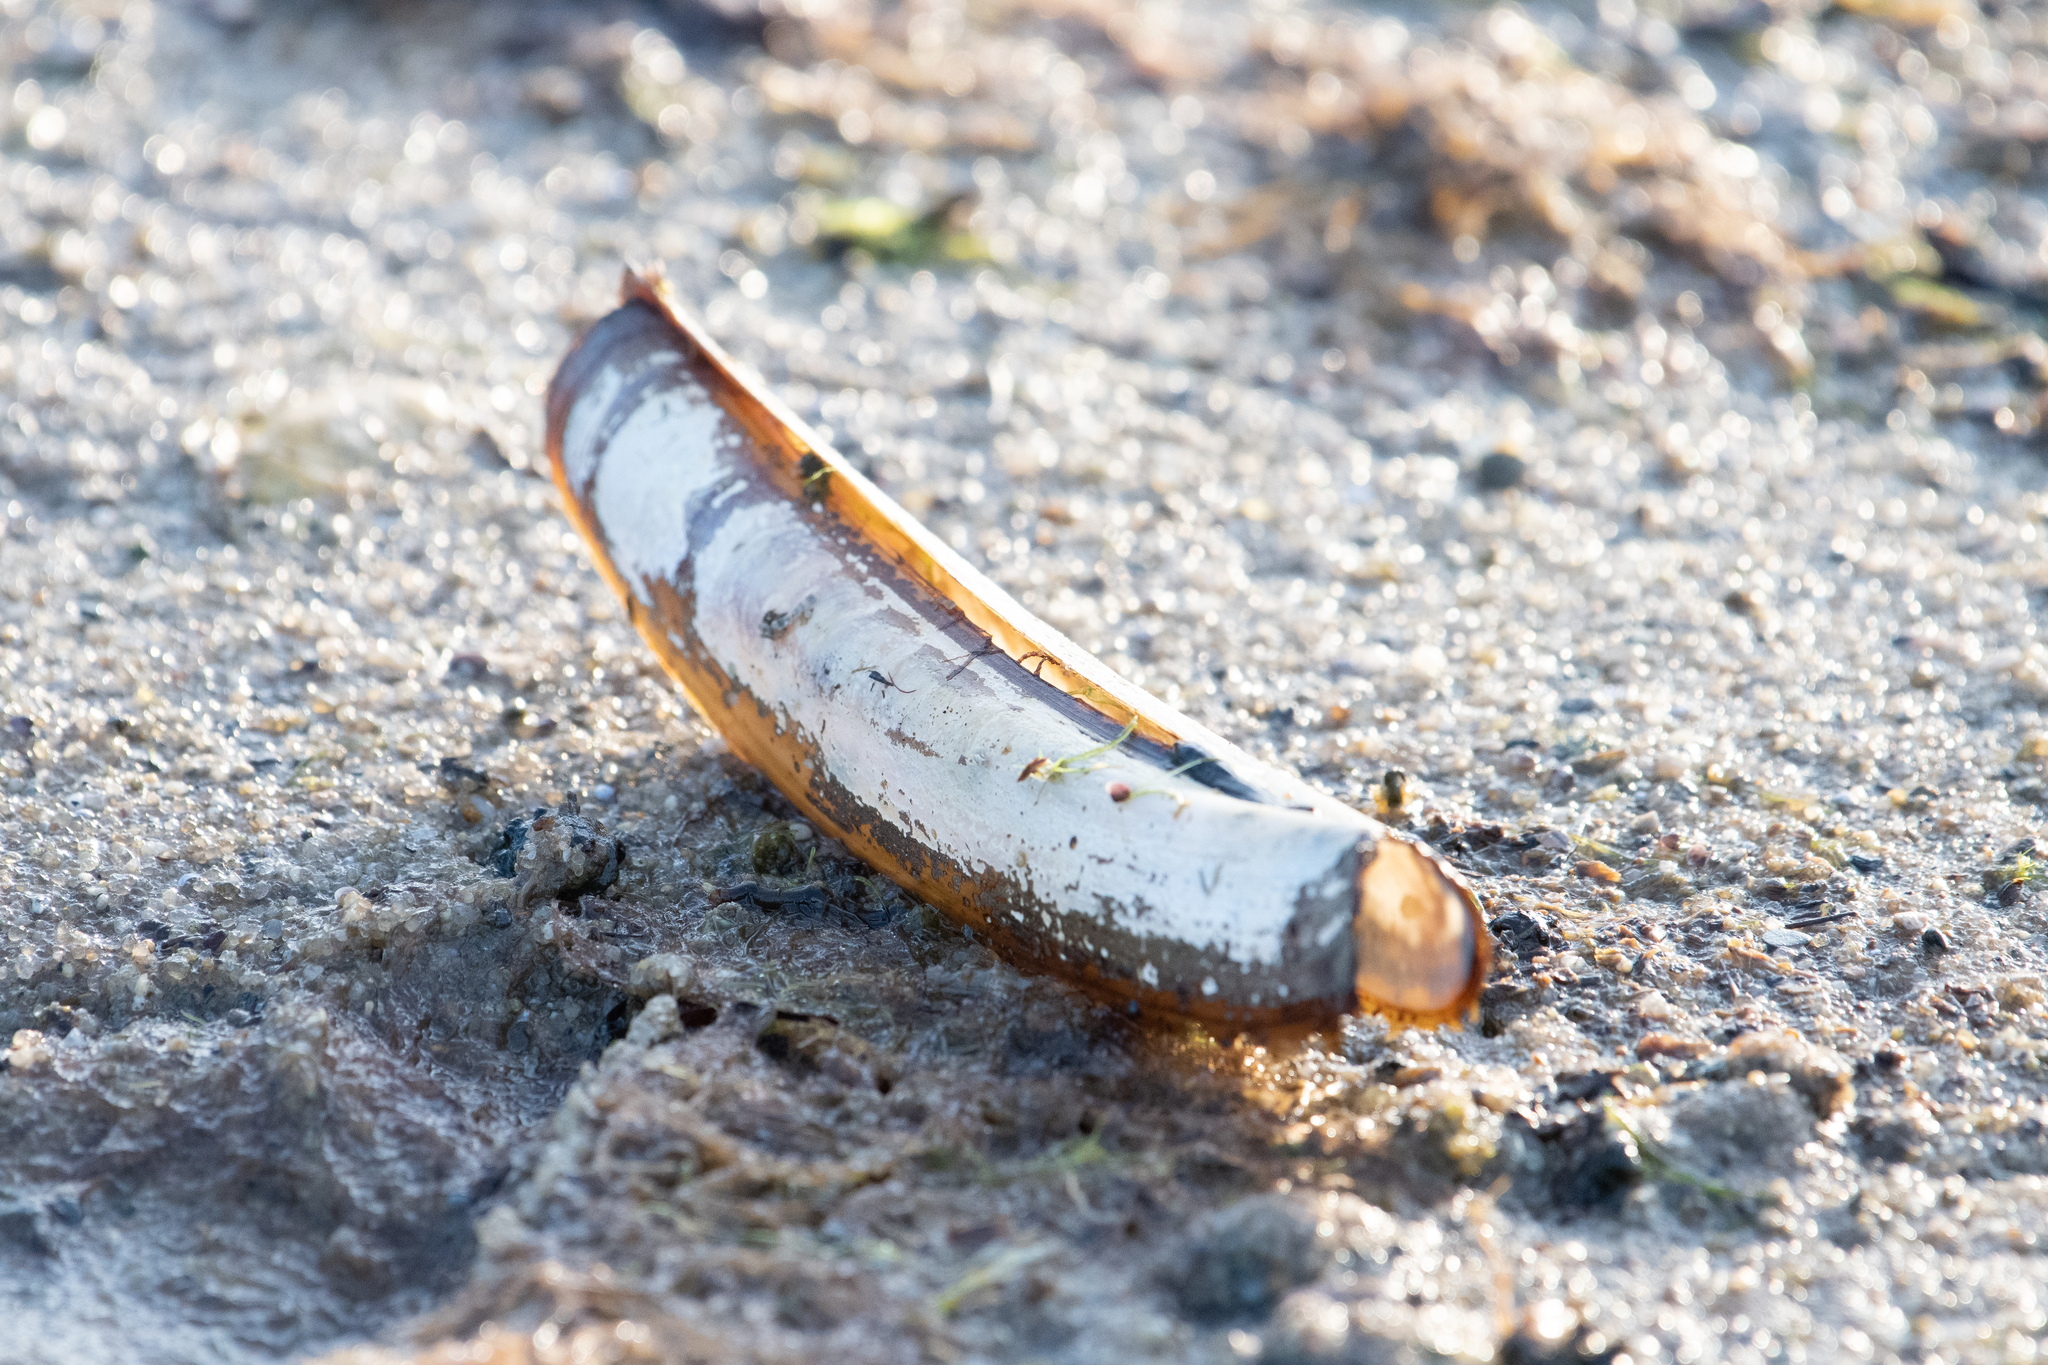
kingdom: Animalia
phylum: Mollusca
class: Bivalvia
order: Adapedonta
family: Pharidae
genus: Ensis
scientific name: Ensis leei
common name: American jack knife clam
